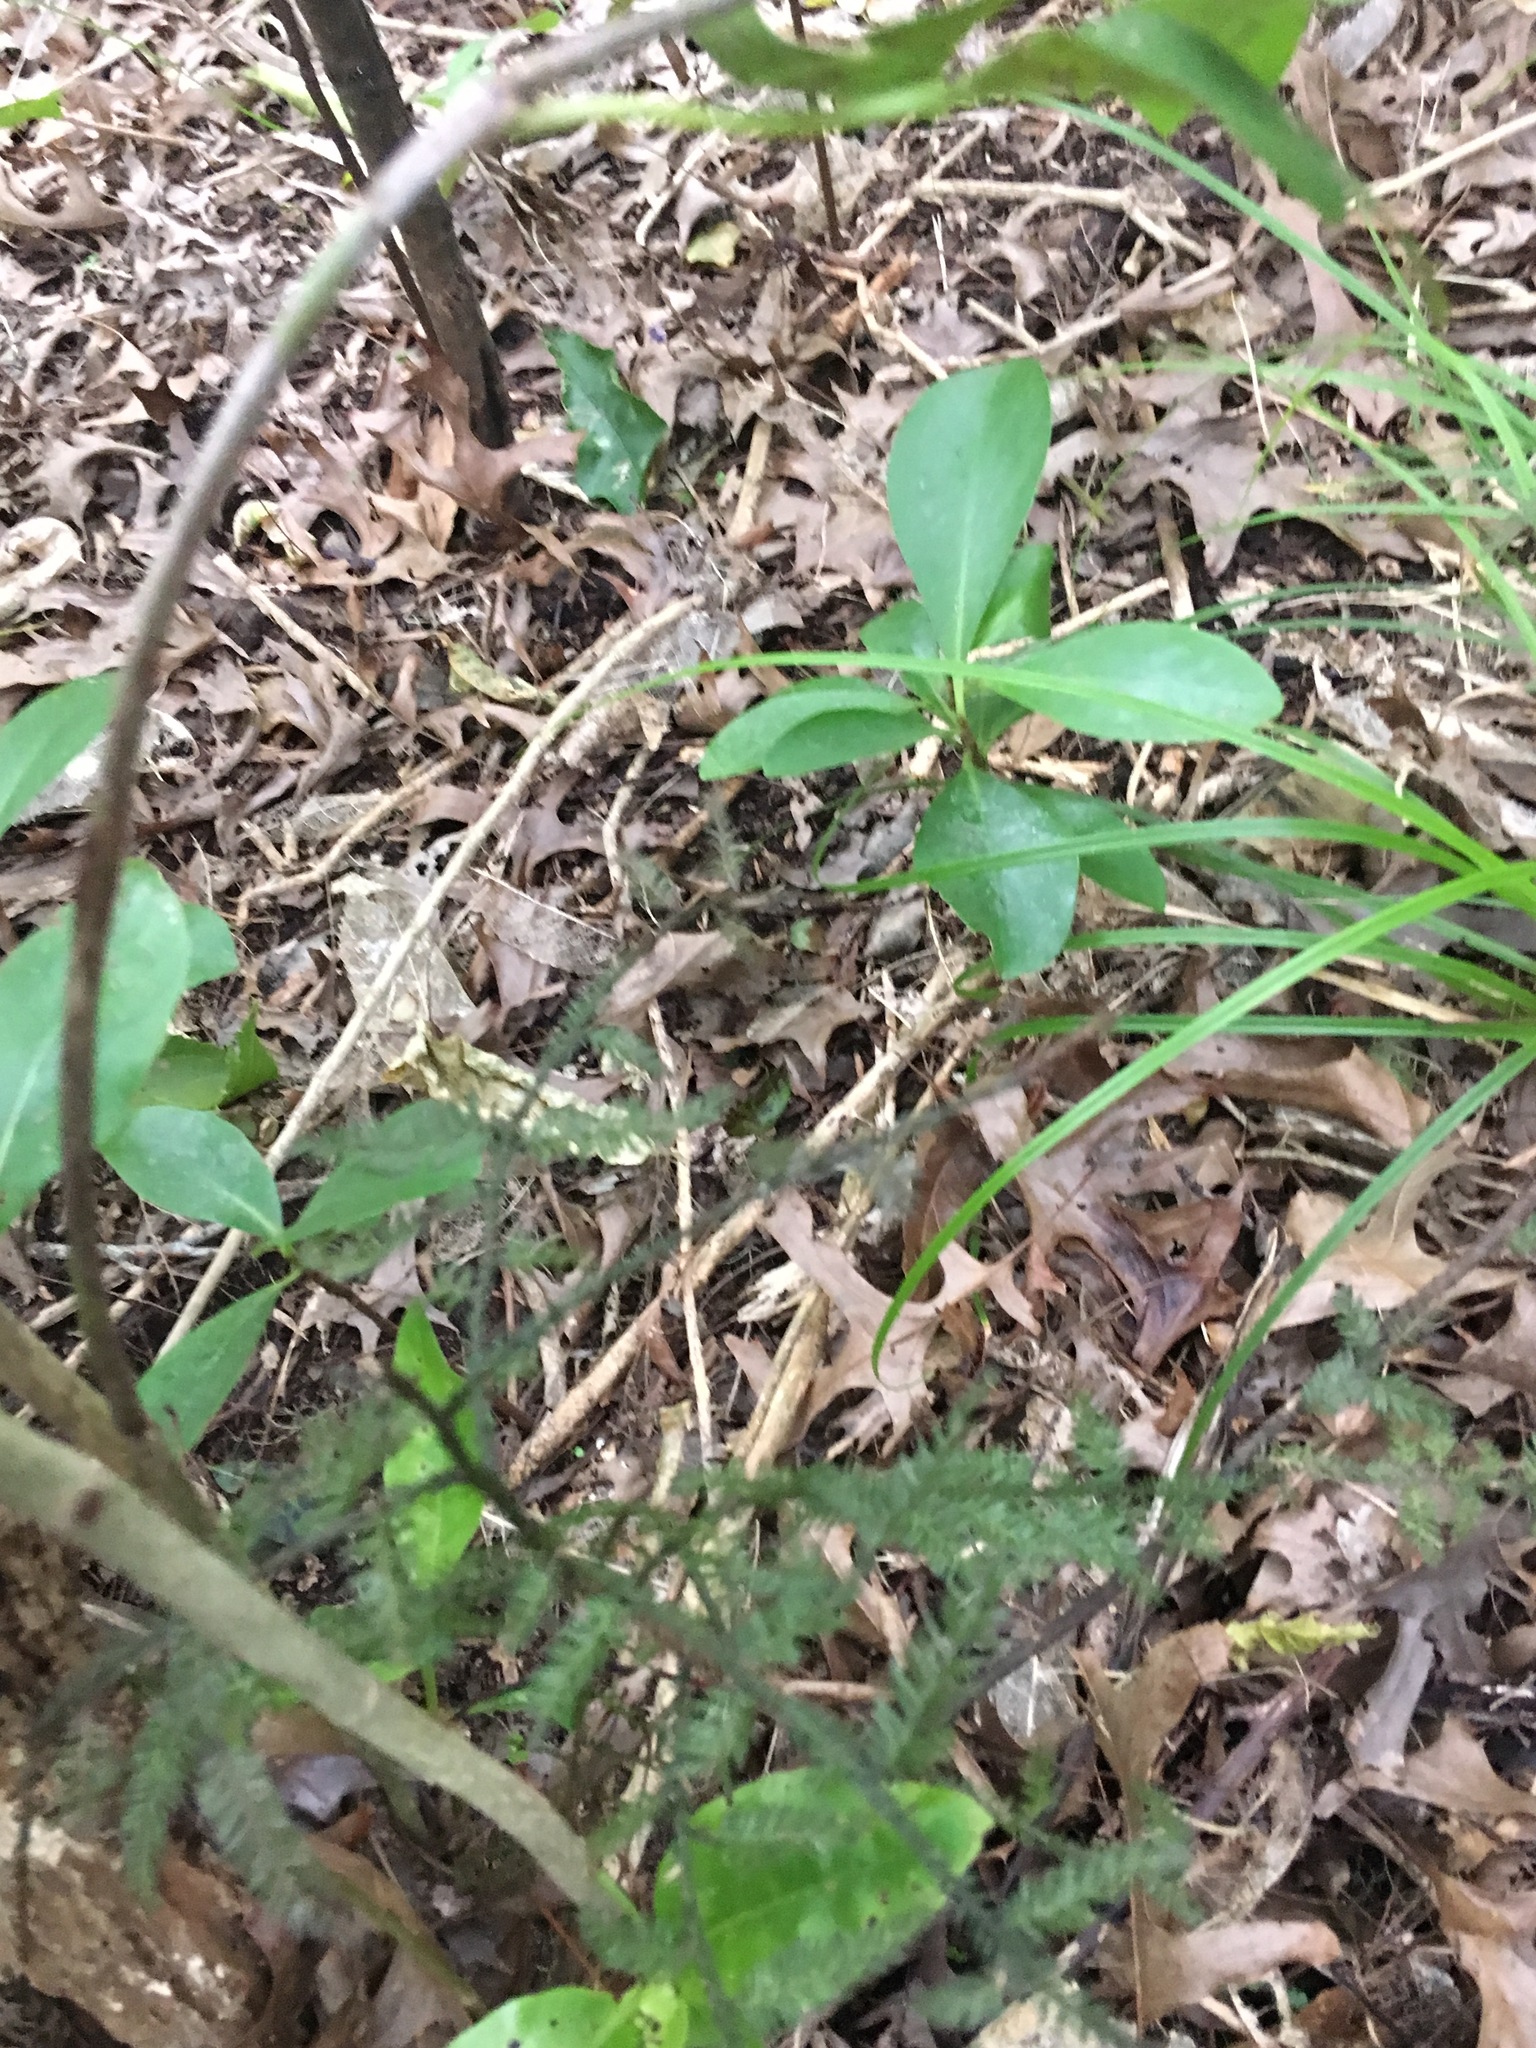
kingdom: Plantae
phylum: Tracheophyta
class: Magnoliopsida
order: Cucurbitales
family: Corynocarpaceae
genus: Corynocarpus
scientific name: Corynocarpus laevigatus
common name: New zealand laurel
